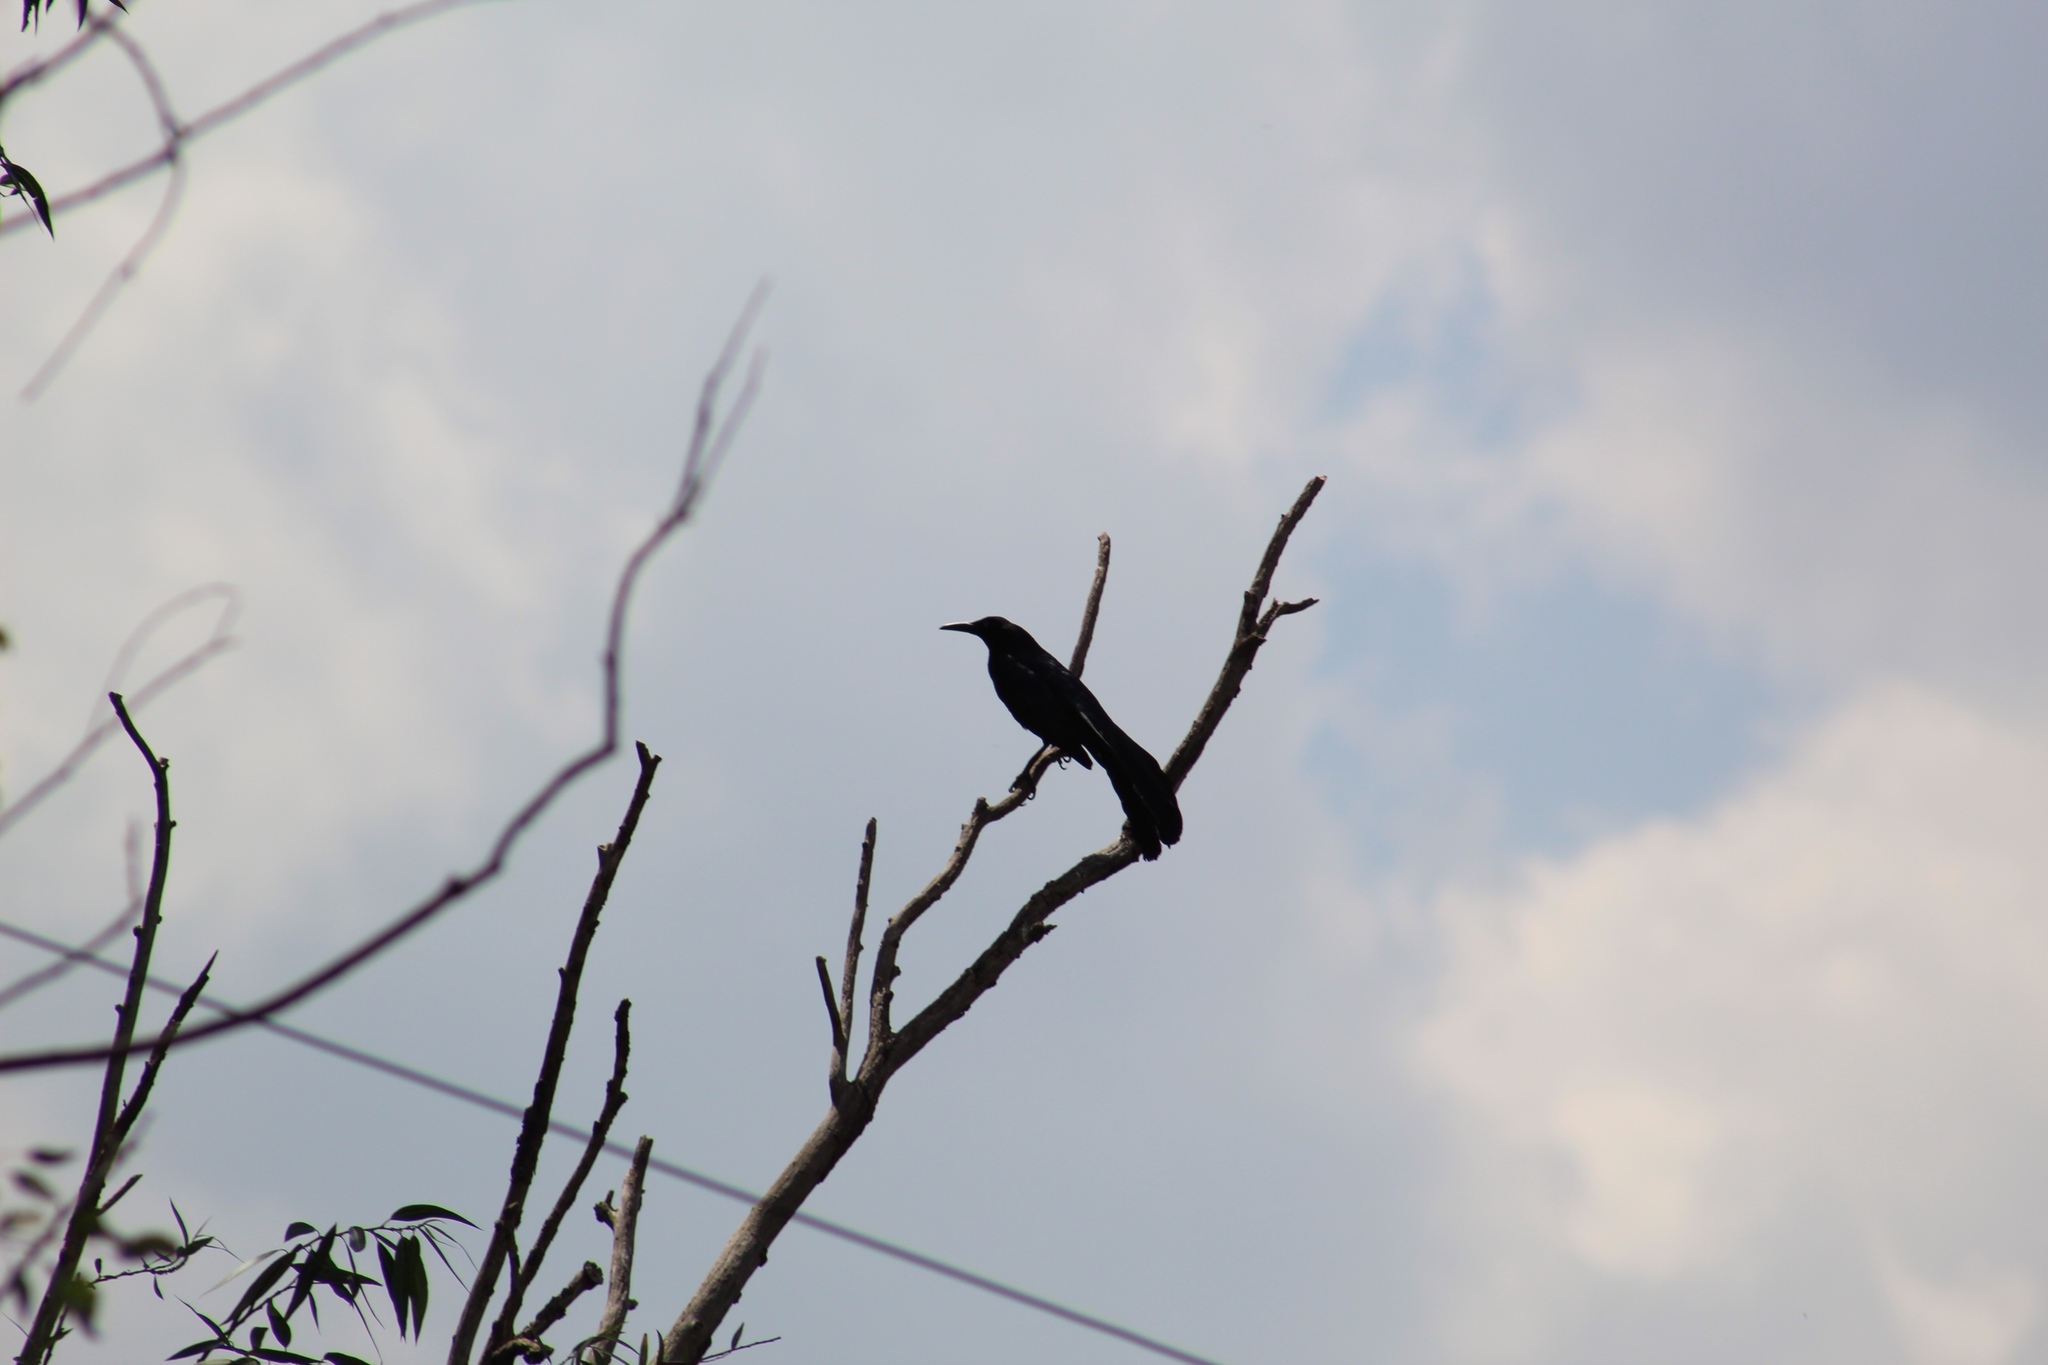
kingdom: Animalia
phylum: Chordata
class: Aves
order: Passeriformes
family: Icteridae
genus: Quiscalus
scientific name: Quiscalus mexicanus
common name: Great-tailed grackle
